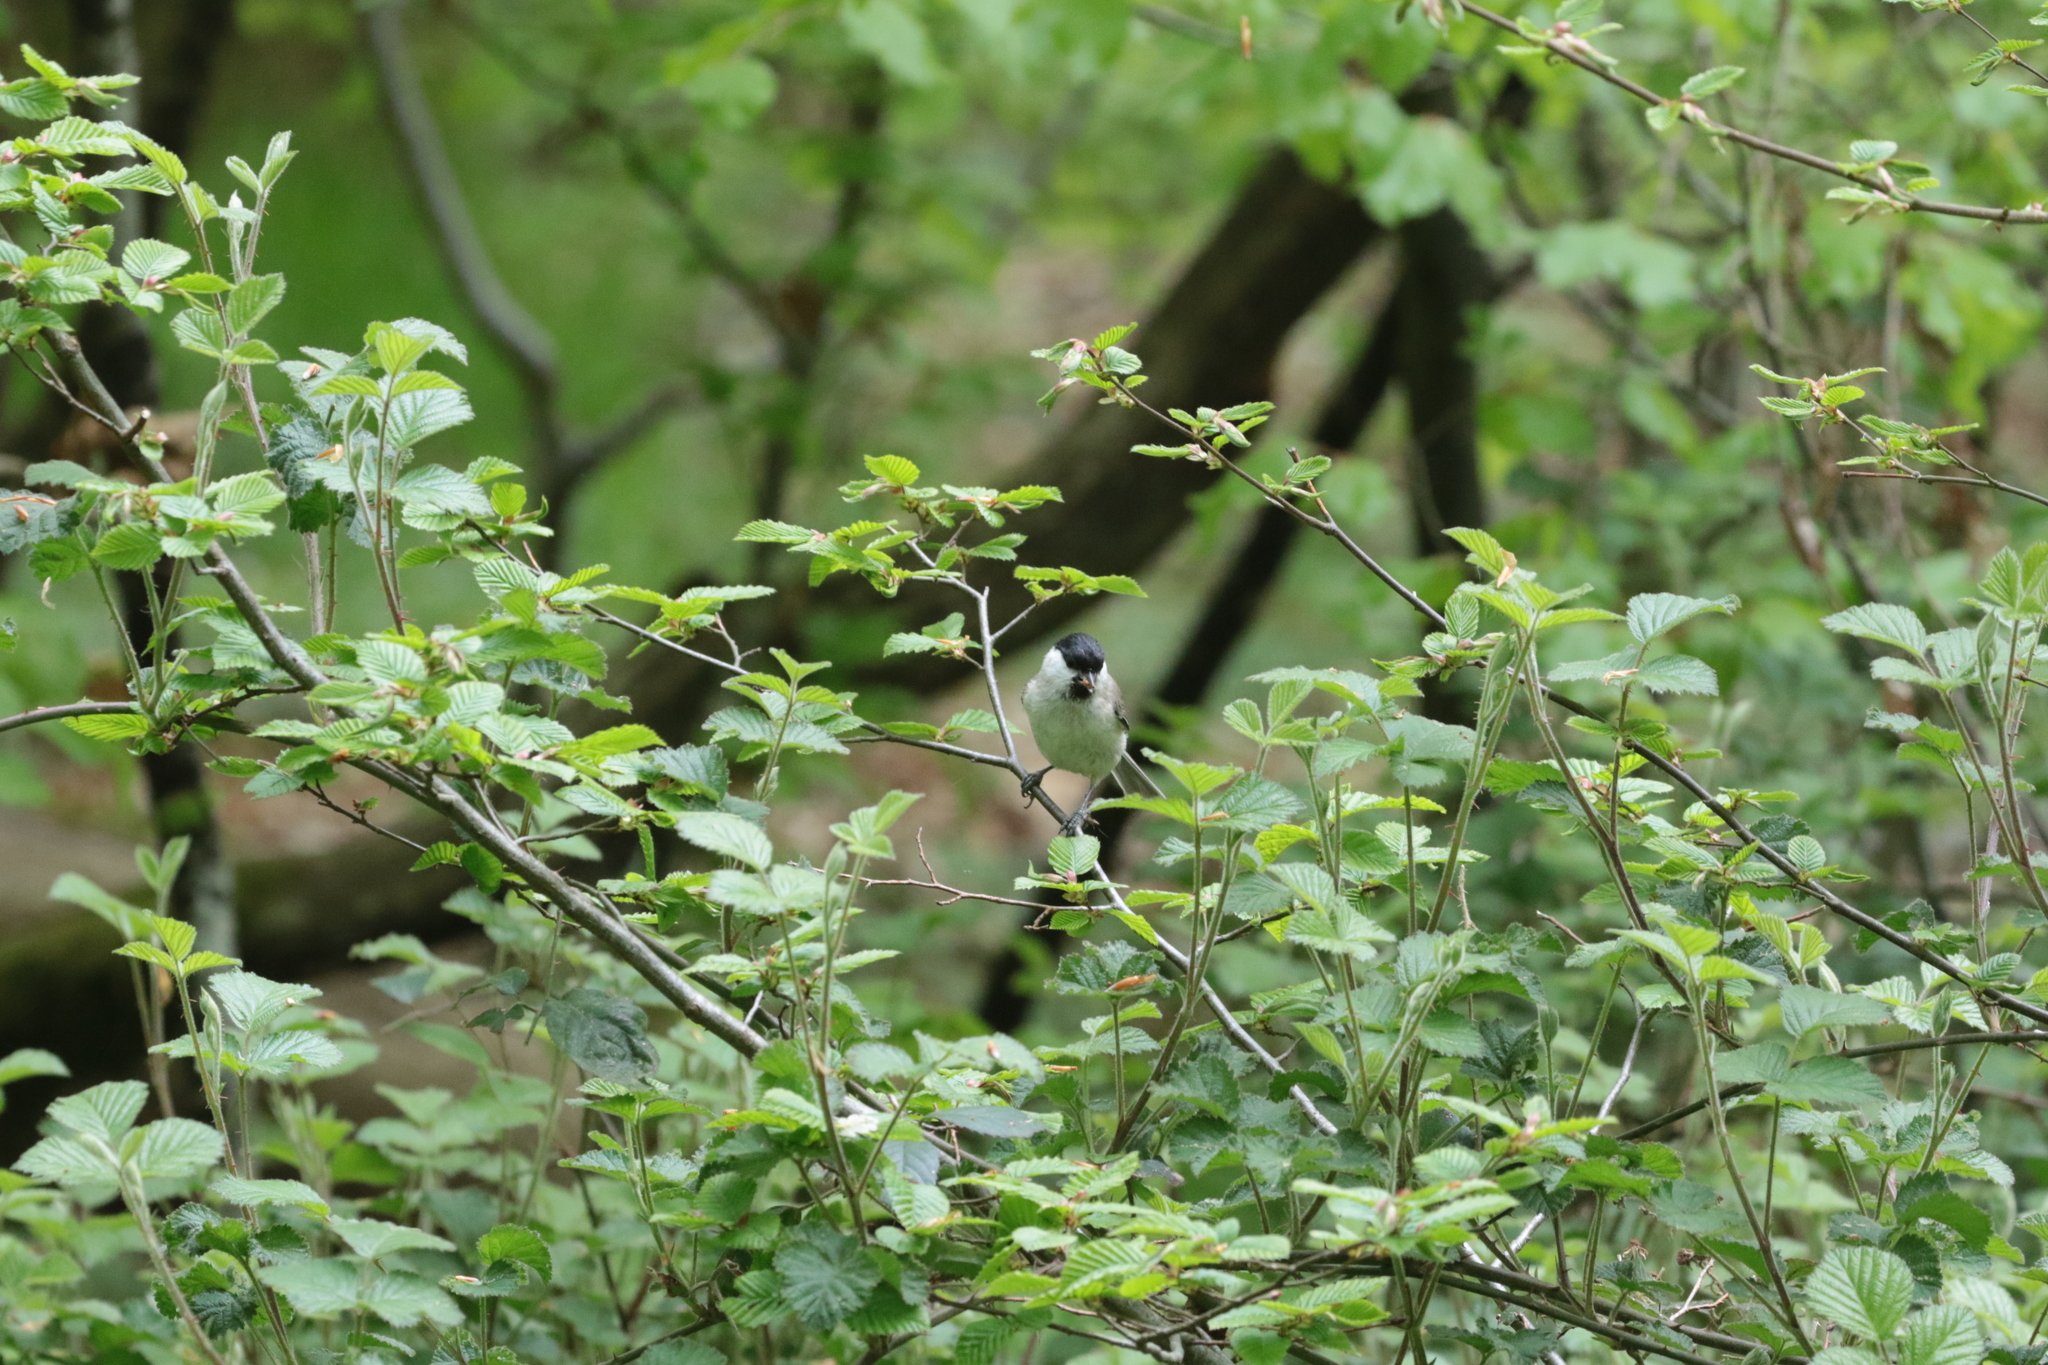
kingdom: Animalia
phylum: Chordata
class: Aves
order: Passeriformes
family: Paridae
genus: Poecile
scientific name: Poecile palustris
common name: Marsh tit
